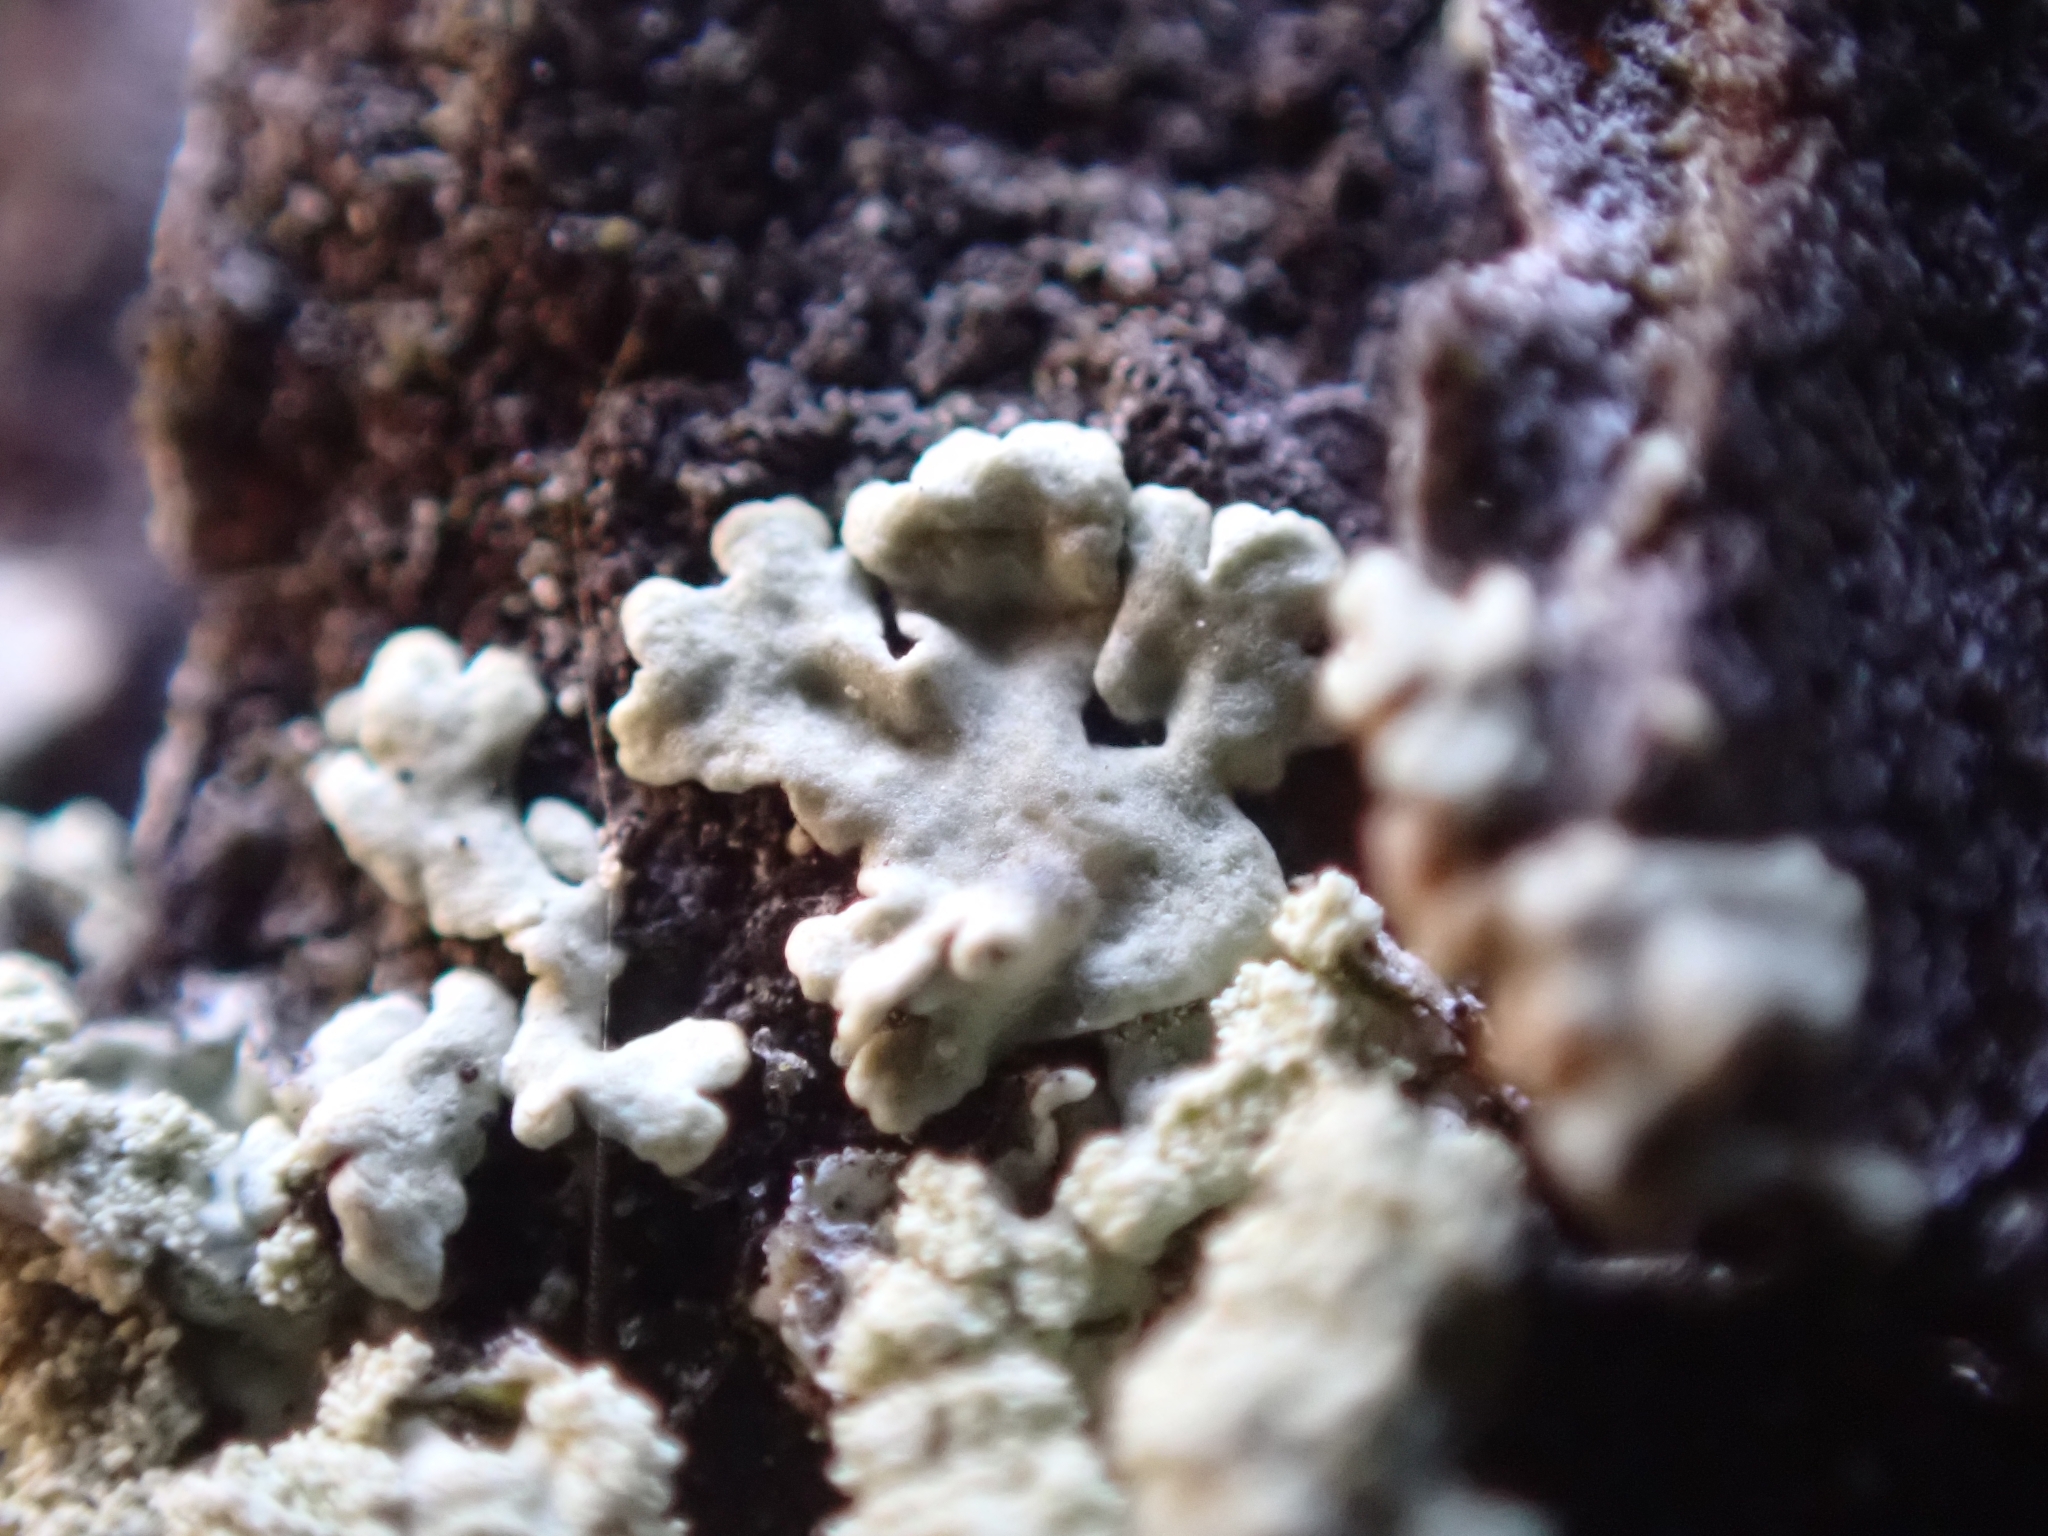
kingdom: Fungi
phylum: Ascomycota
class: Lecanoromycetes
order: Lecanorales
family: Parmeliaceae
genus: Parmeliopsis
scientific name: Parmeliopsis ambigua
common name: Green starburst lichen
